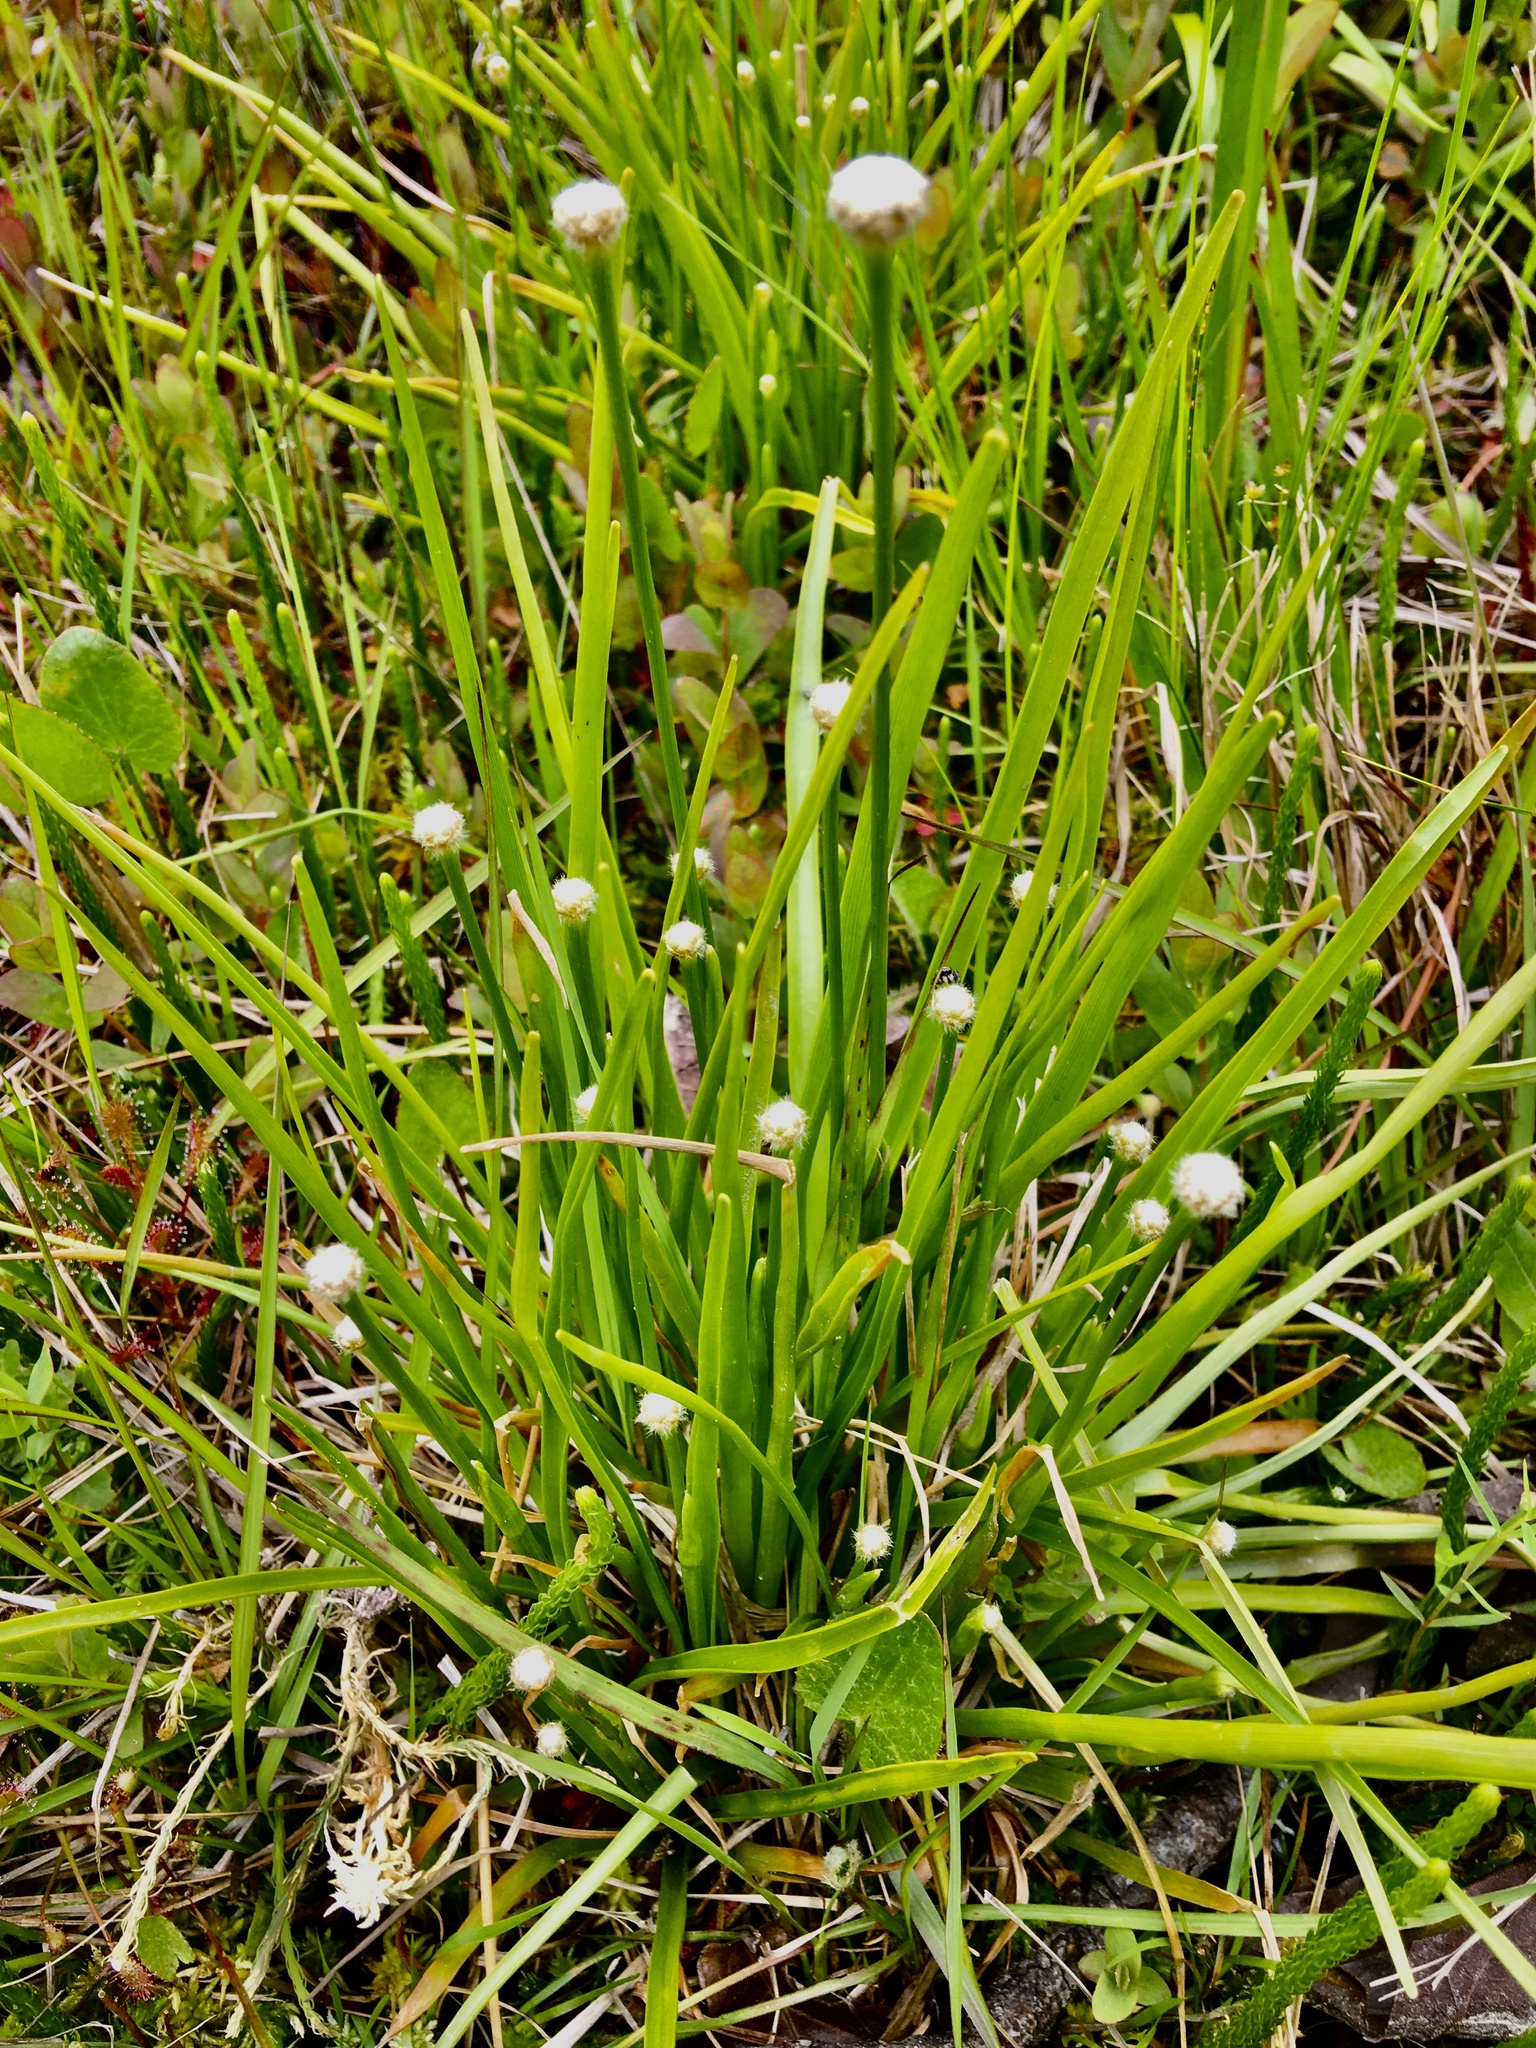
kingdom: Plantae
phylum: Tracheophyta
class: Liliopsida
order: Poales
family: Eriocaulaceae
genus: Eriocaulon
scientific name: Eriocaulon decangulare
